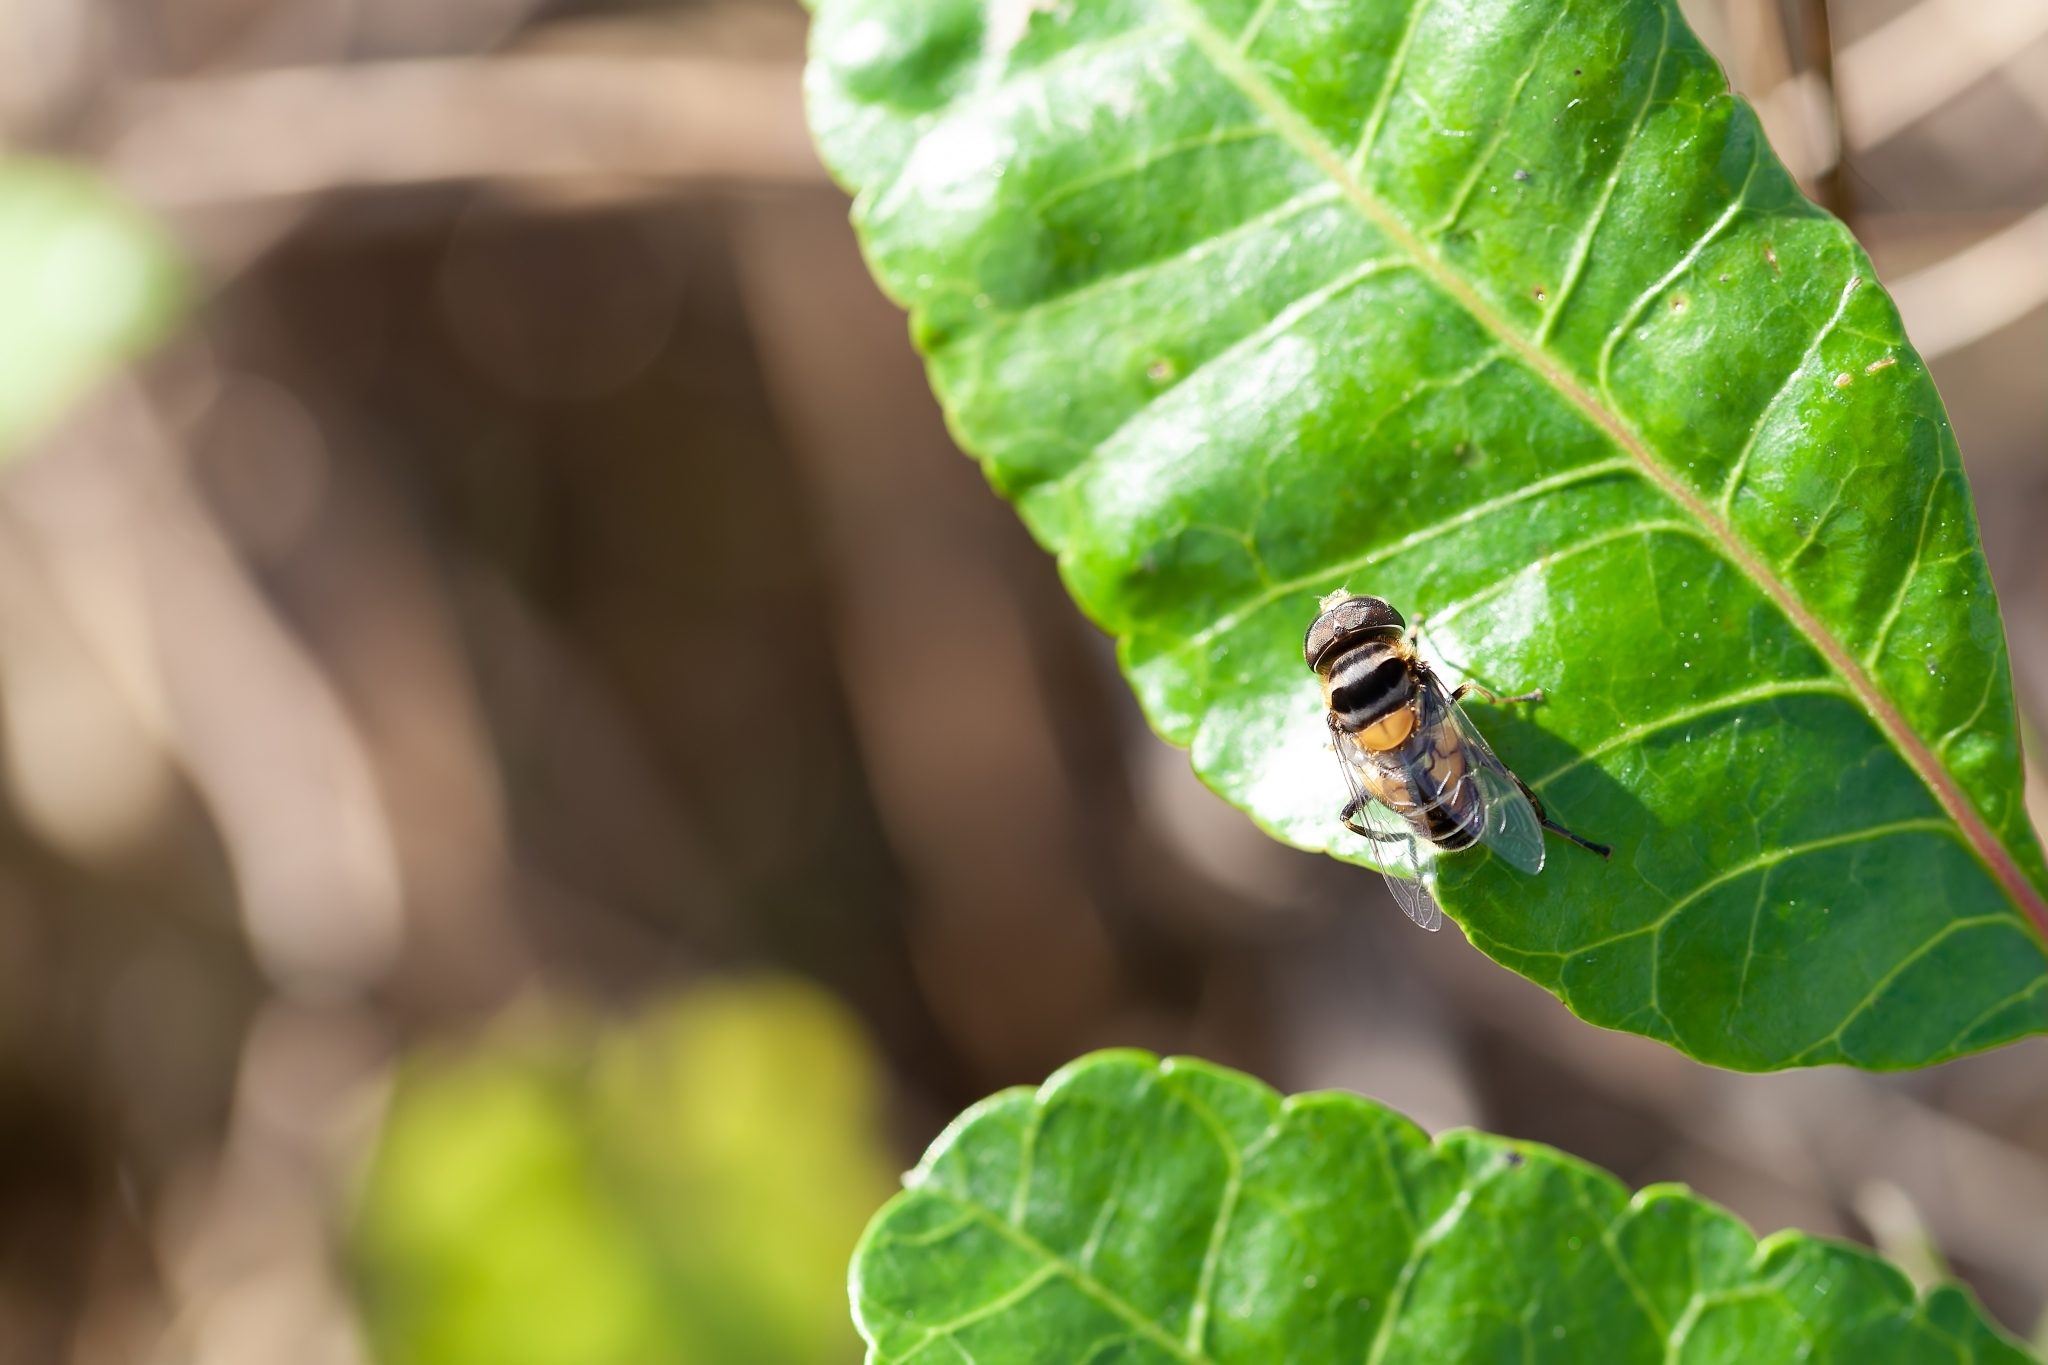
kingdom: Animalia
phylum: Arthropoda
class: Insecta
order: Diptera
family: Syrphidae
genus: Palpada
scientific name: Palpada agrorum
